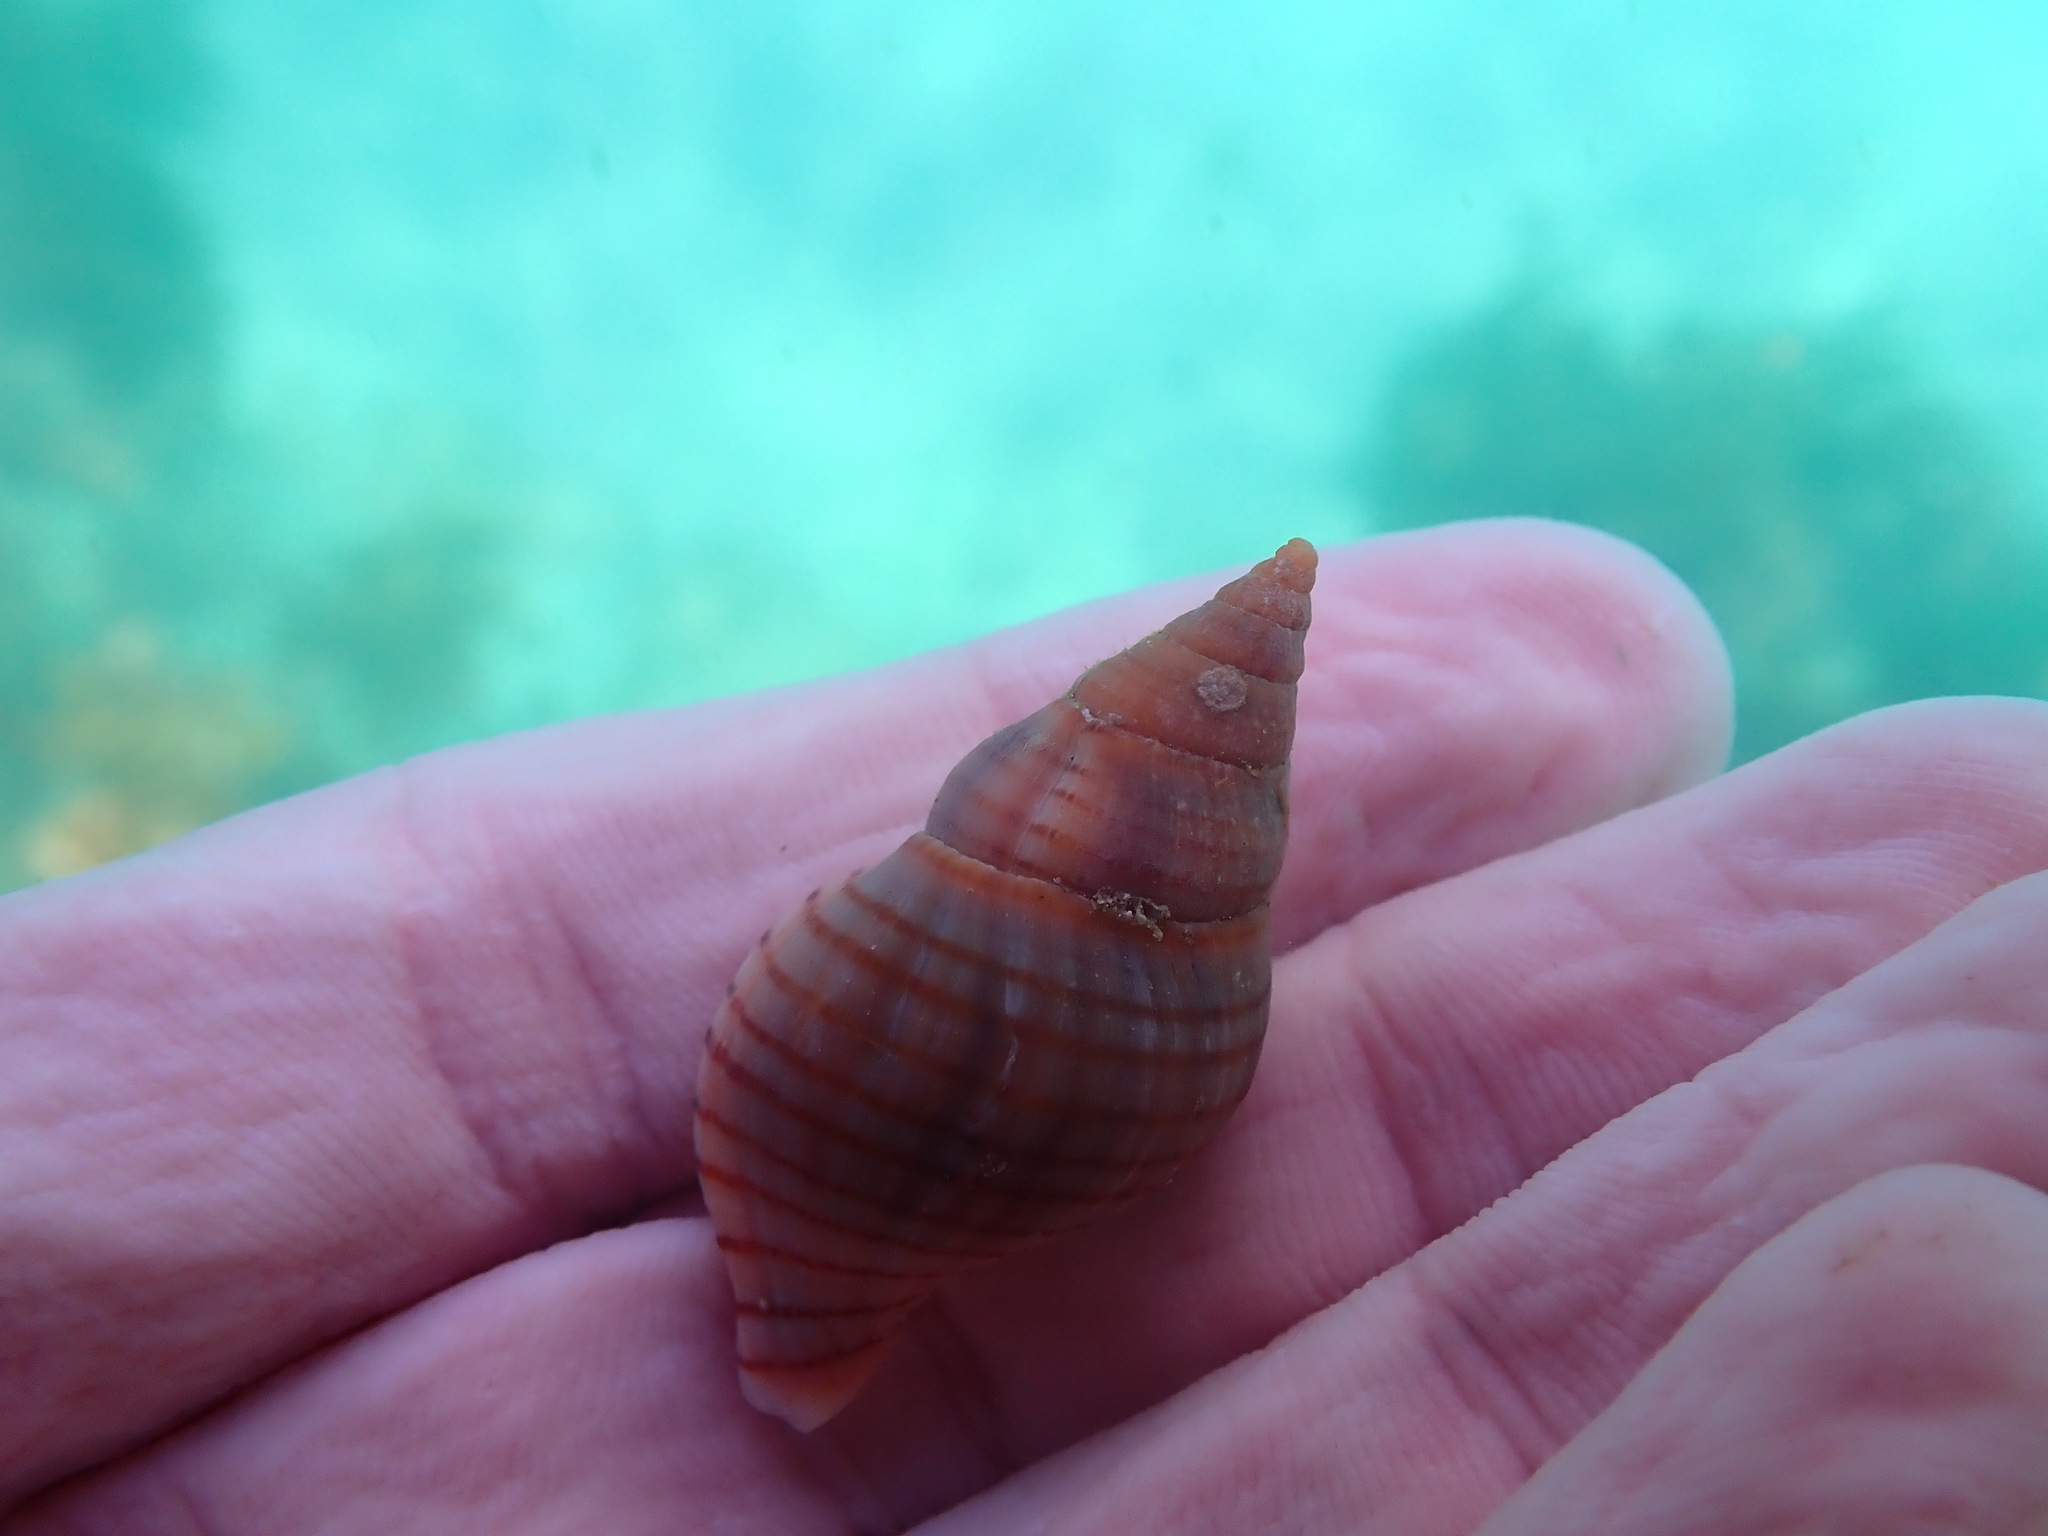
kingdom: Animalia
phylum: Mollusca
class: Gastropoda
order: Neogastropoda
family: Tudiclidae
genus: Buccinulum
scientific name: Buccinulum pallidum
